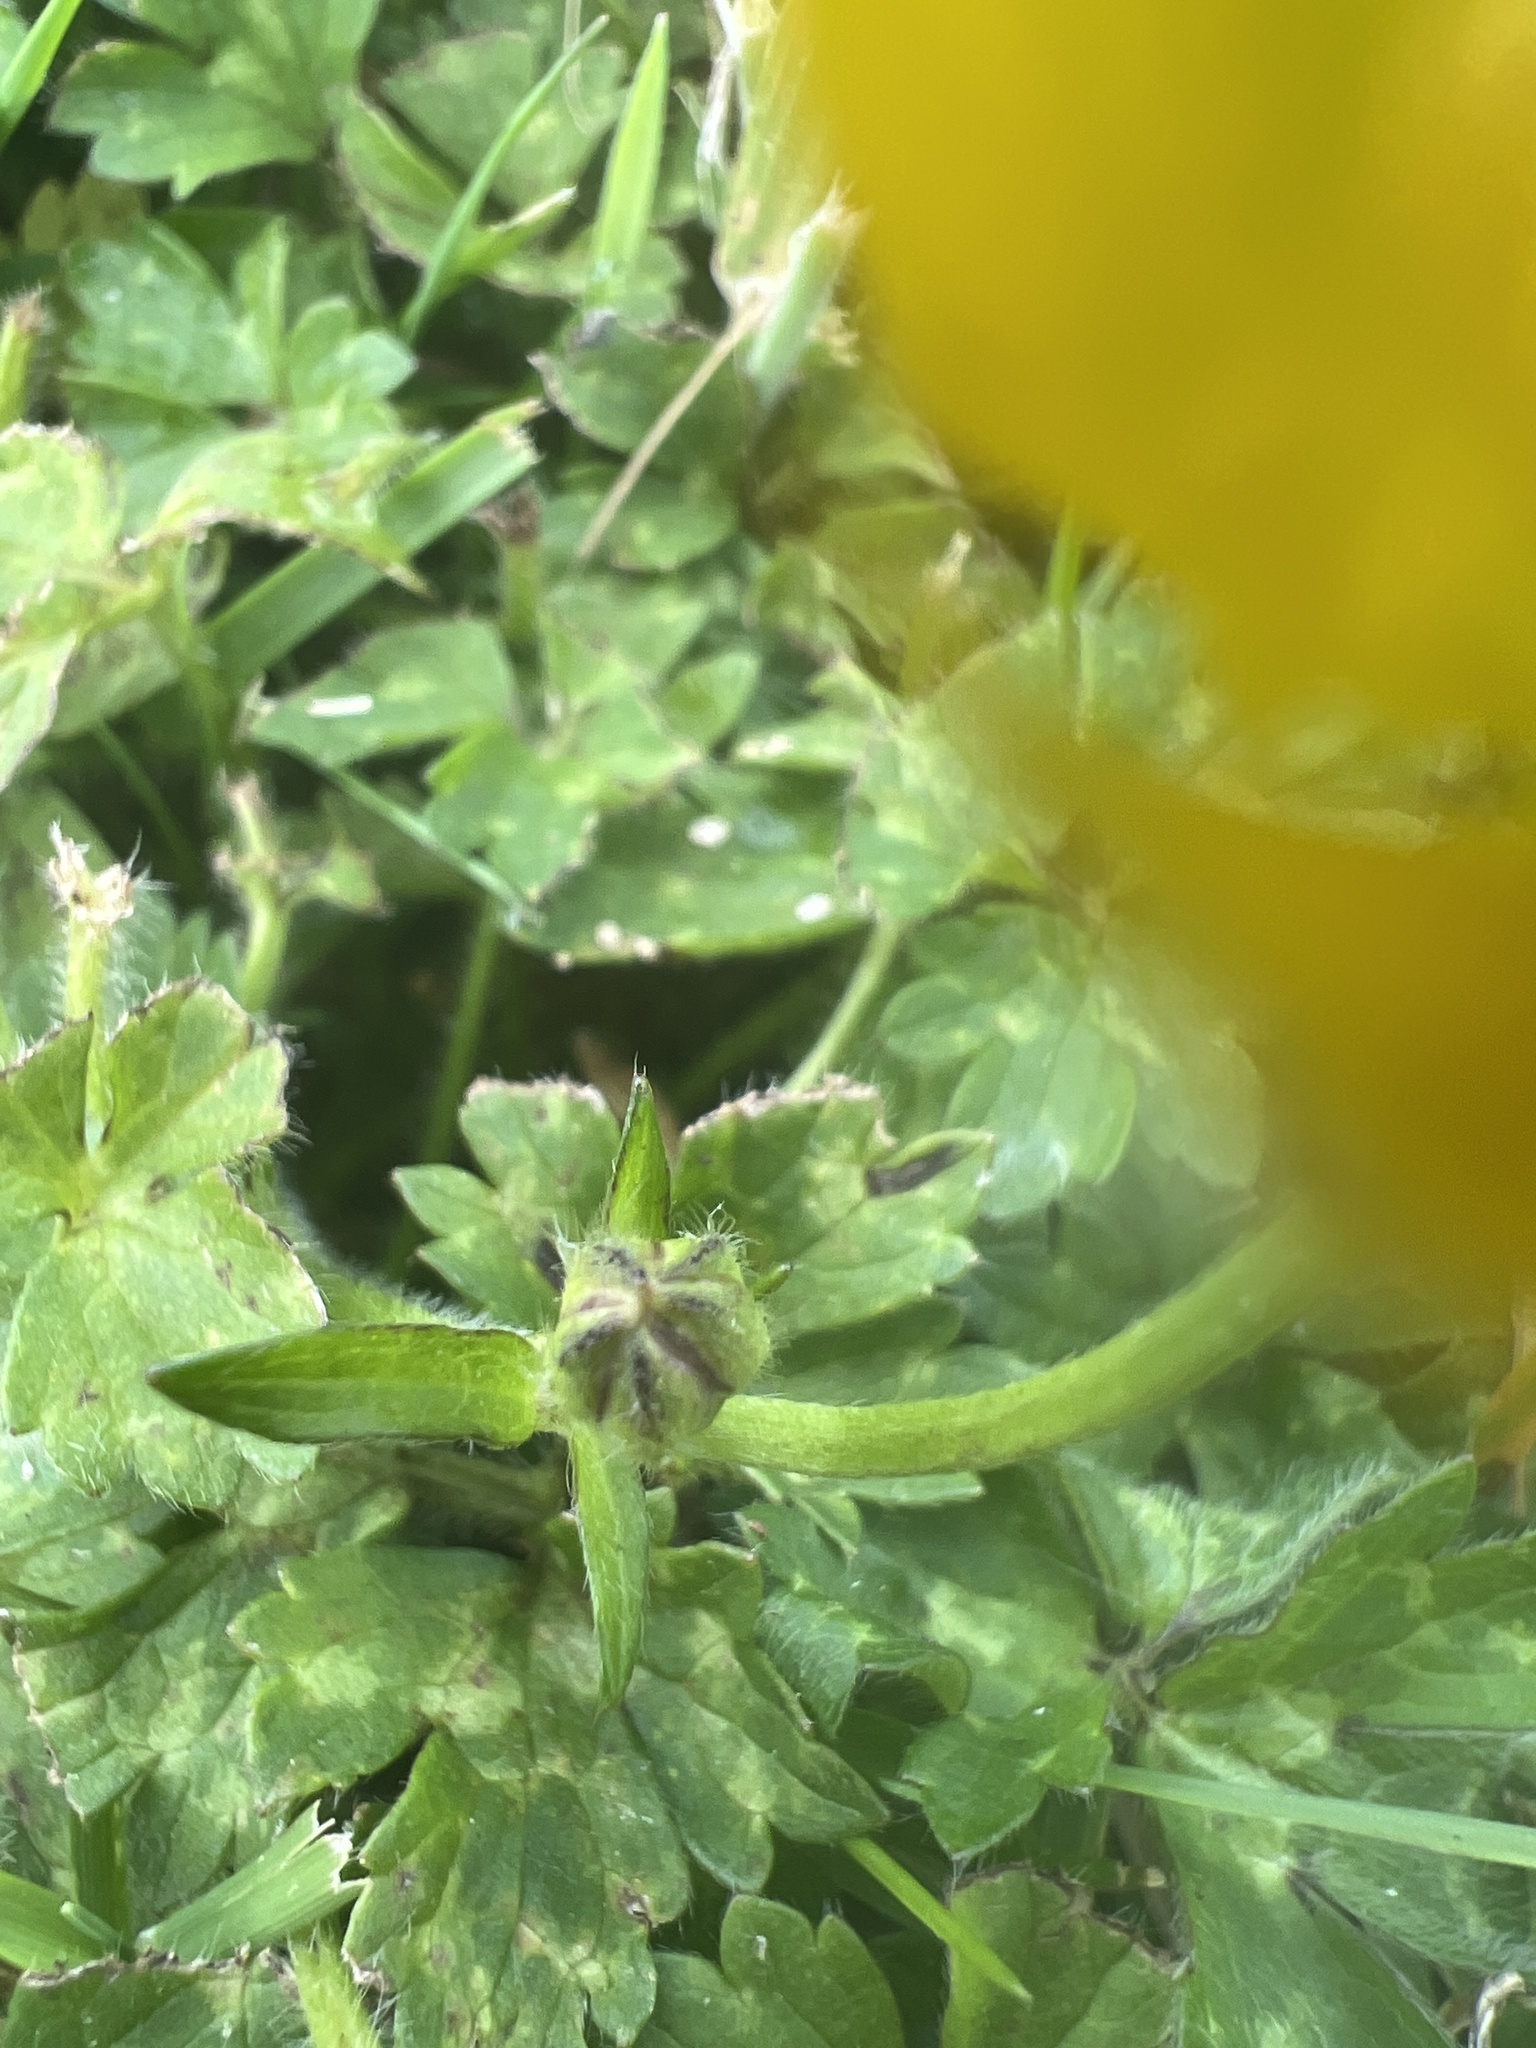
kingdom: Plantae
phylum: Tracheophyta
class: Magnoliopsida
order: Ranunculales
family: Ranunculaceae
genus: Ranunculus
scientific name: Ranunculus repens
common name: Creeping buttercup
